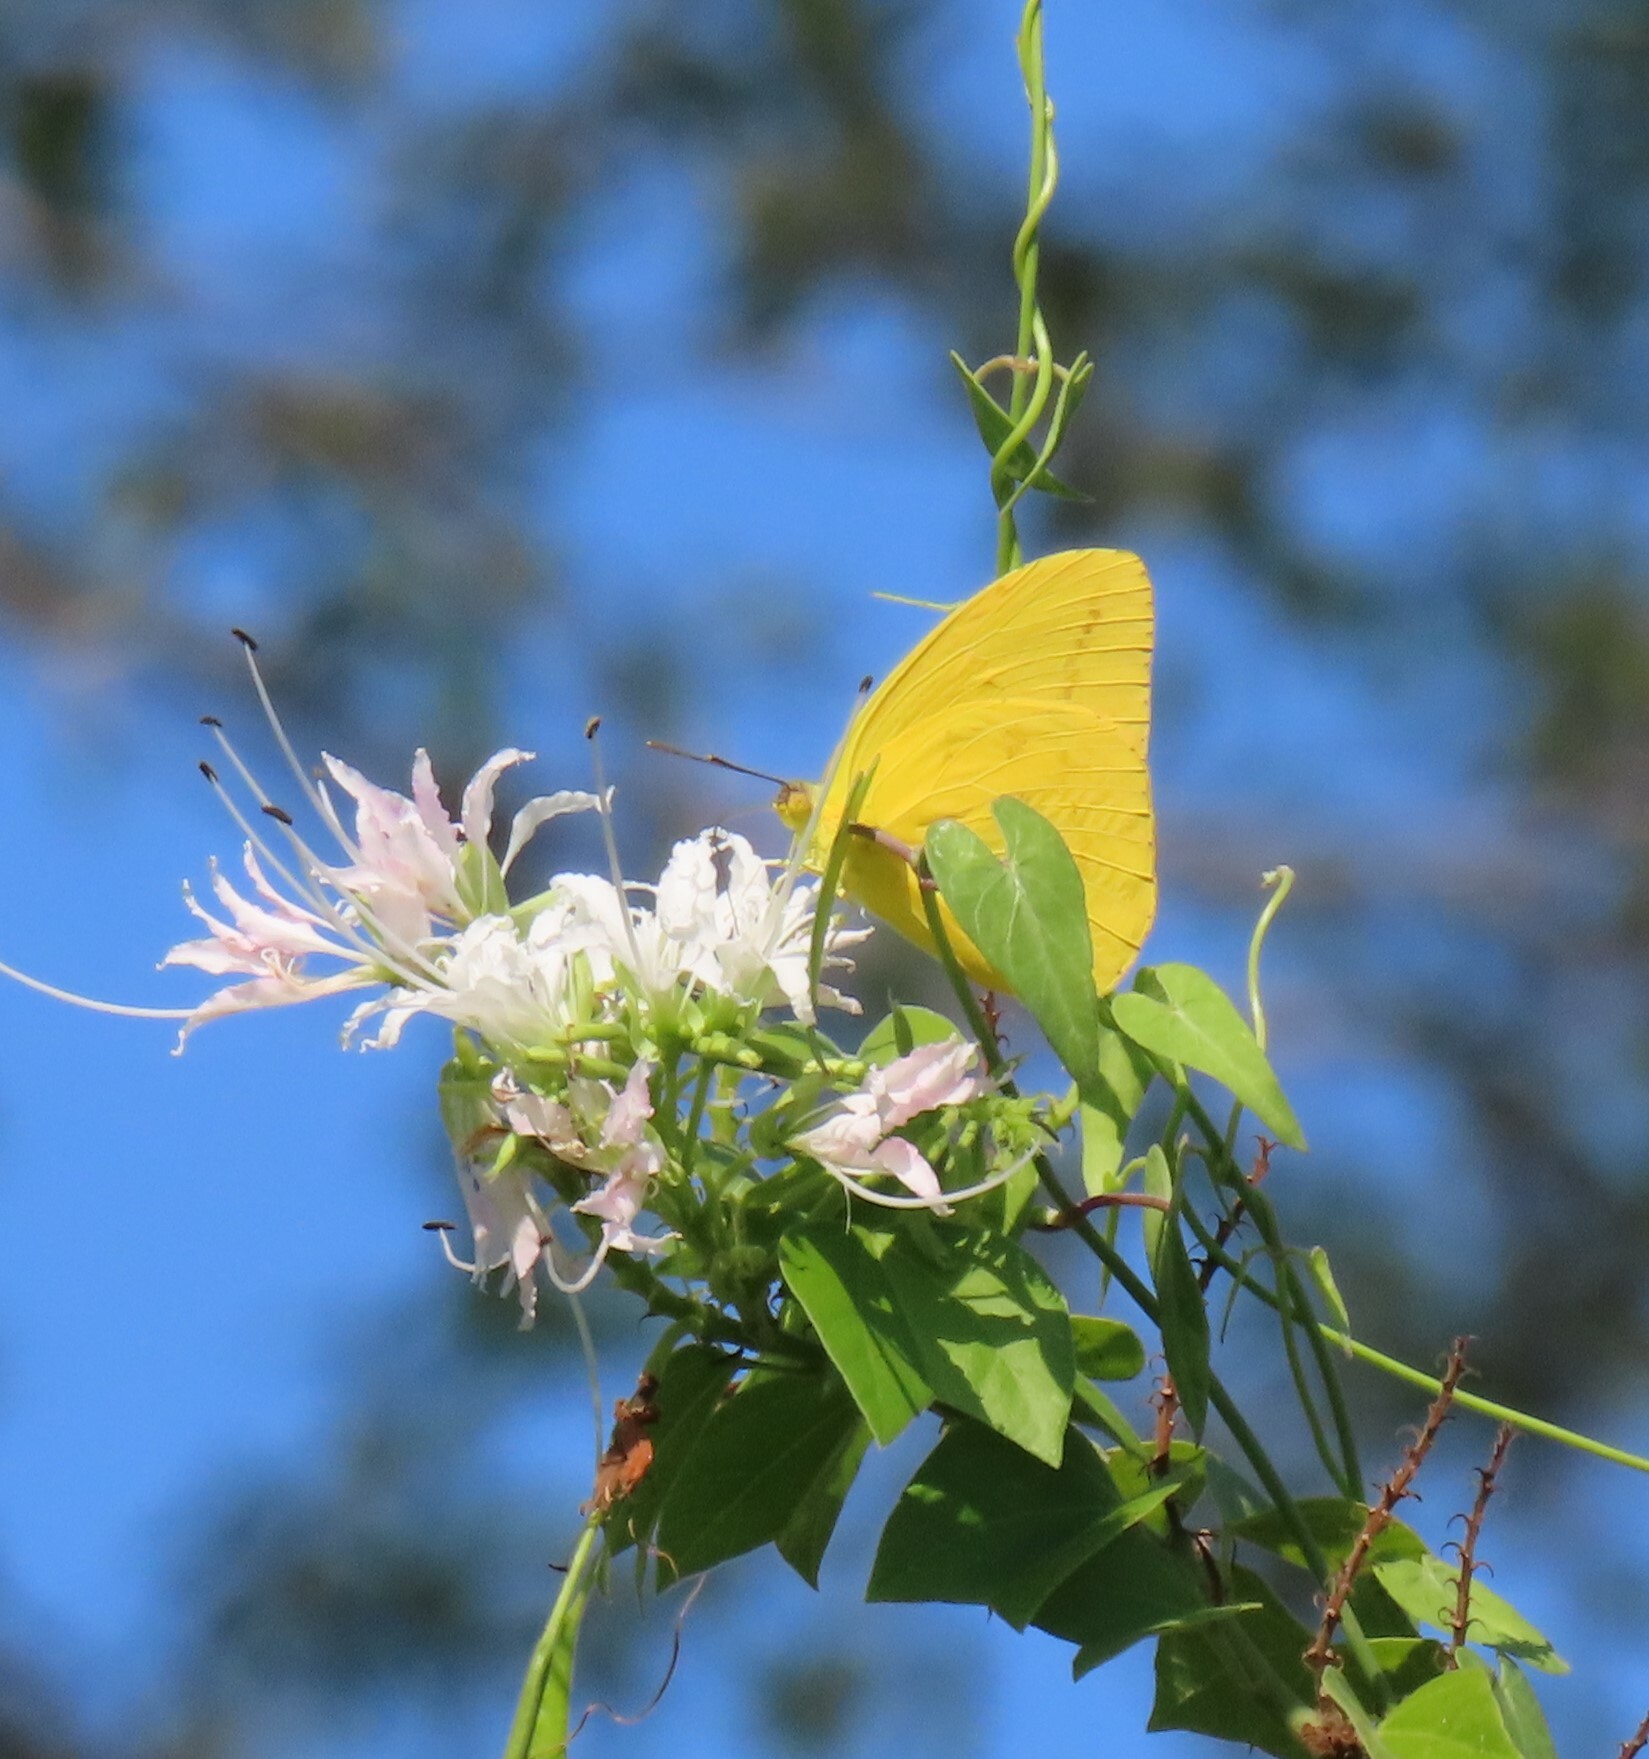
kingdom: Animalia
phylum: Arthropoda
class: Insecta
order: Lepidoptera
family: Pieridae
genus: Phoebis
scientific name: Phoebis agarithe
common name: Large orange sulphur
